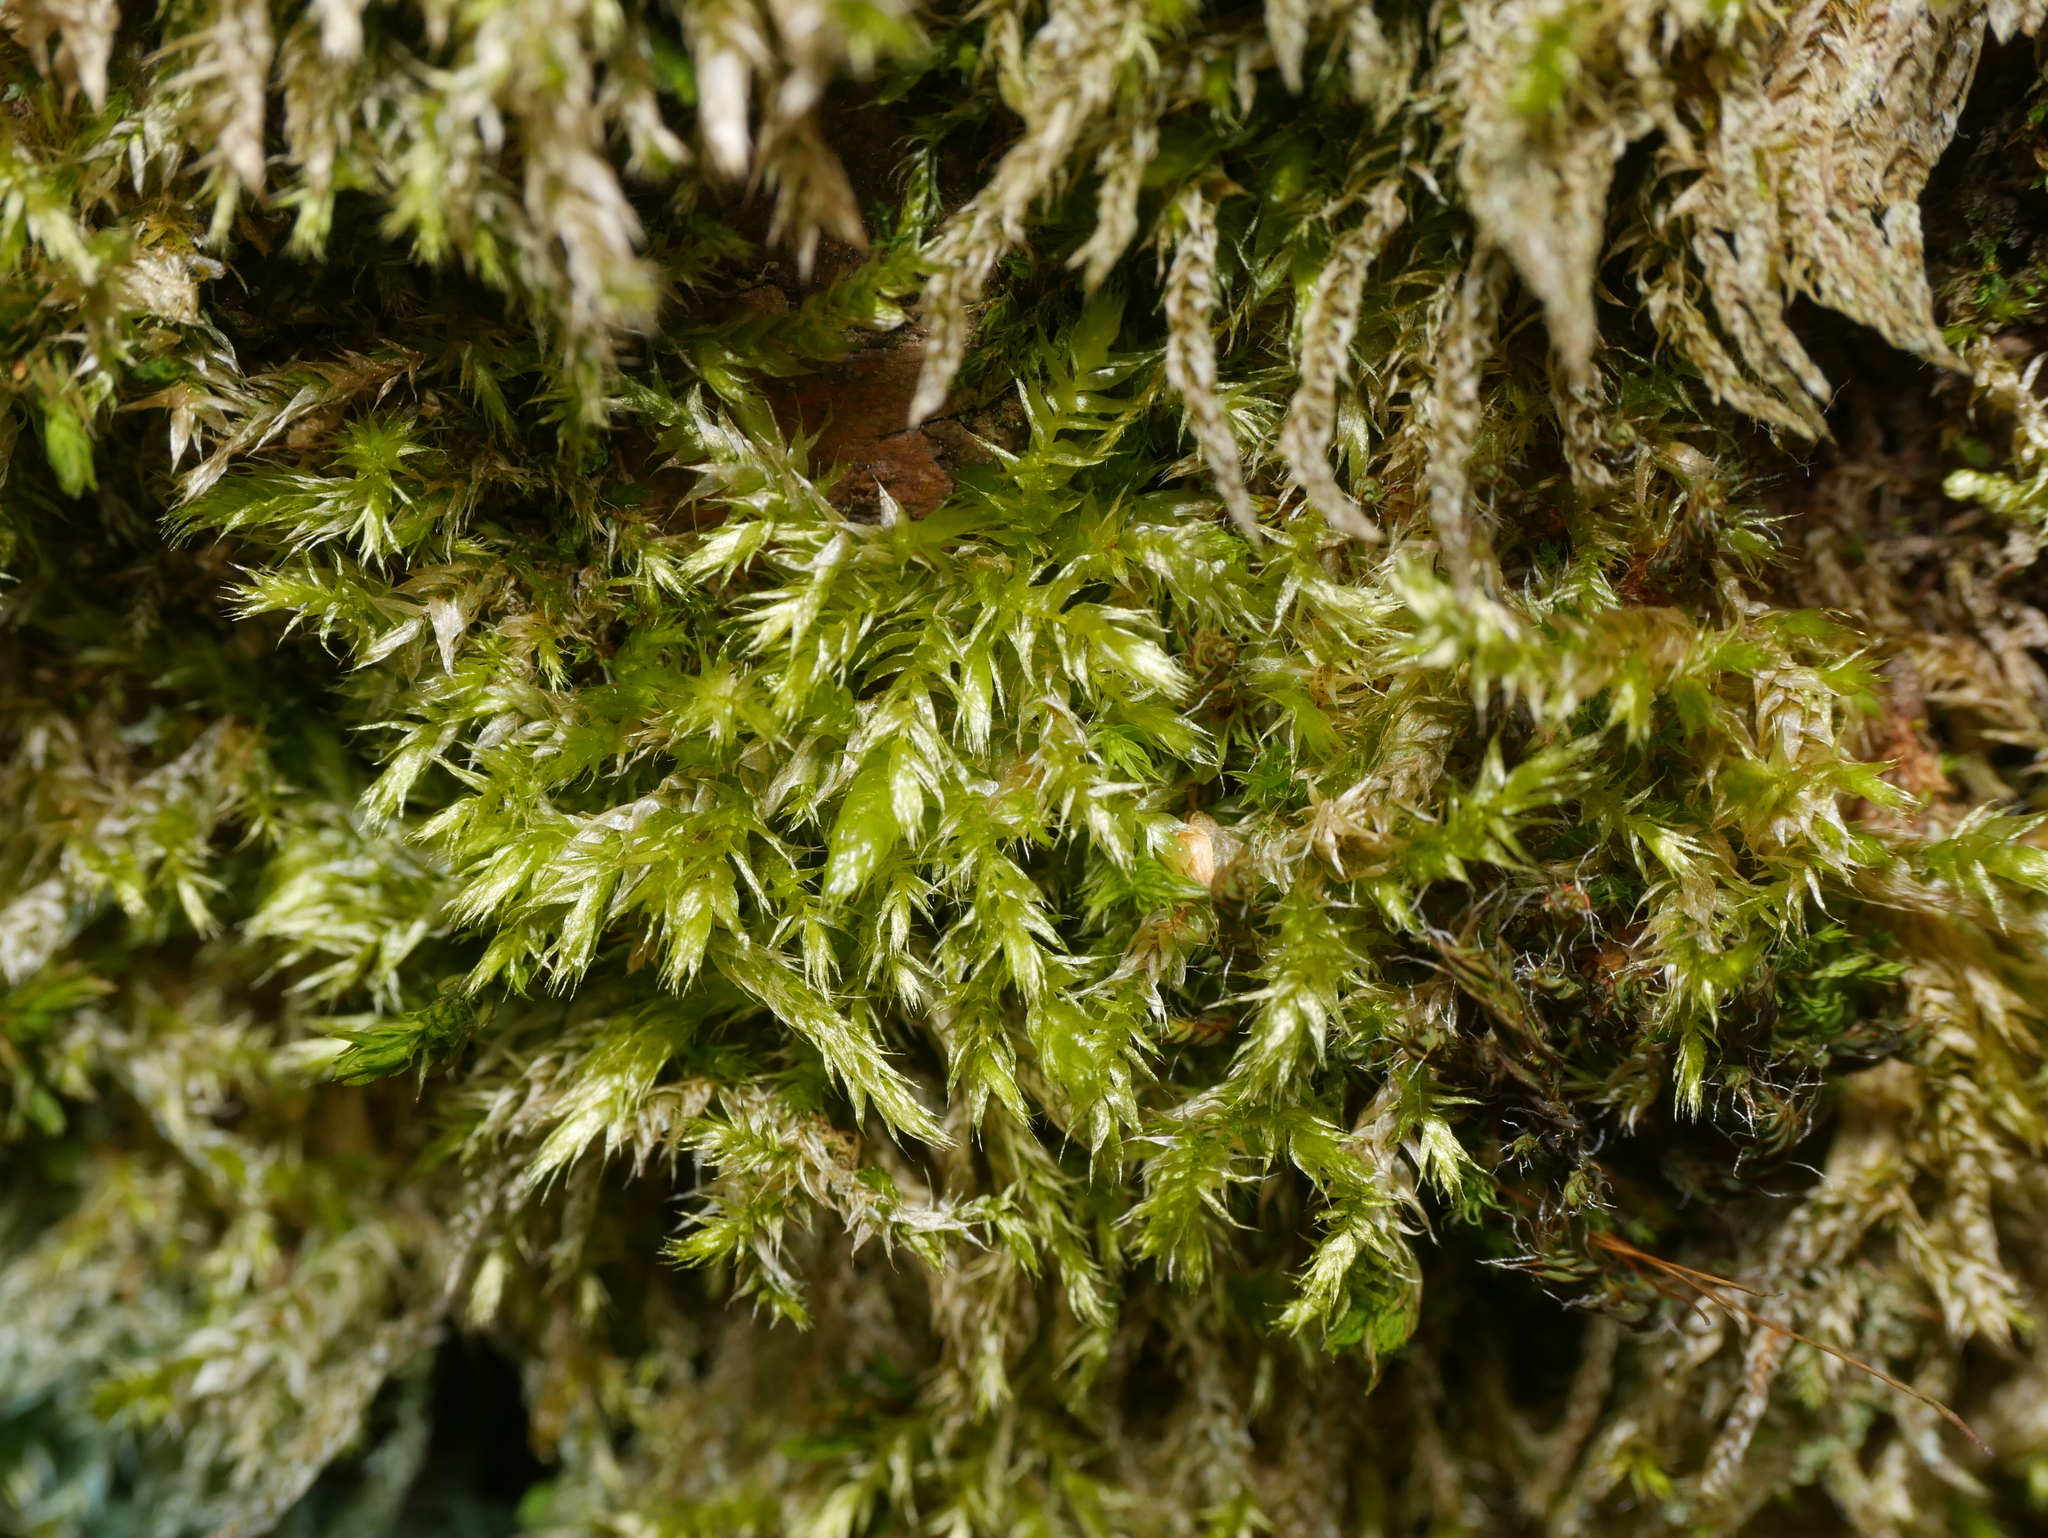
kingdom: Plantae
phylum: Bryophyta
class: Bryopsida
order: Hypnales
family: Hypnaceae
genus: Hypnum
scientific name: Hypnum cupressiforme
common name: Cypress-leaved plait-moss
